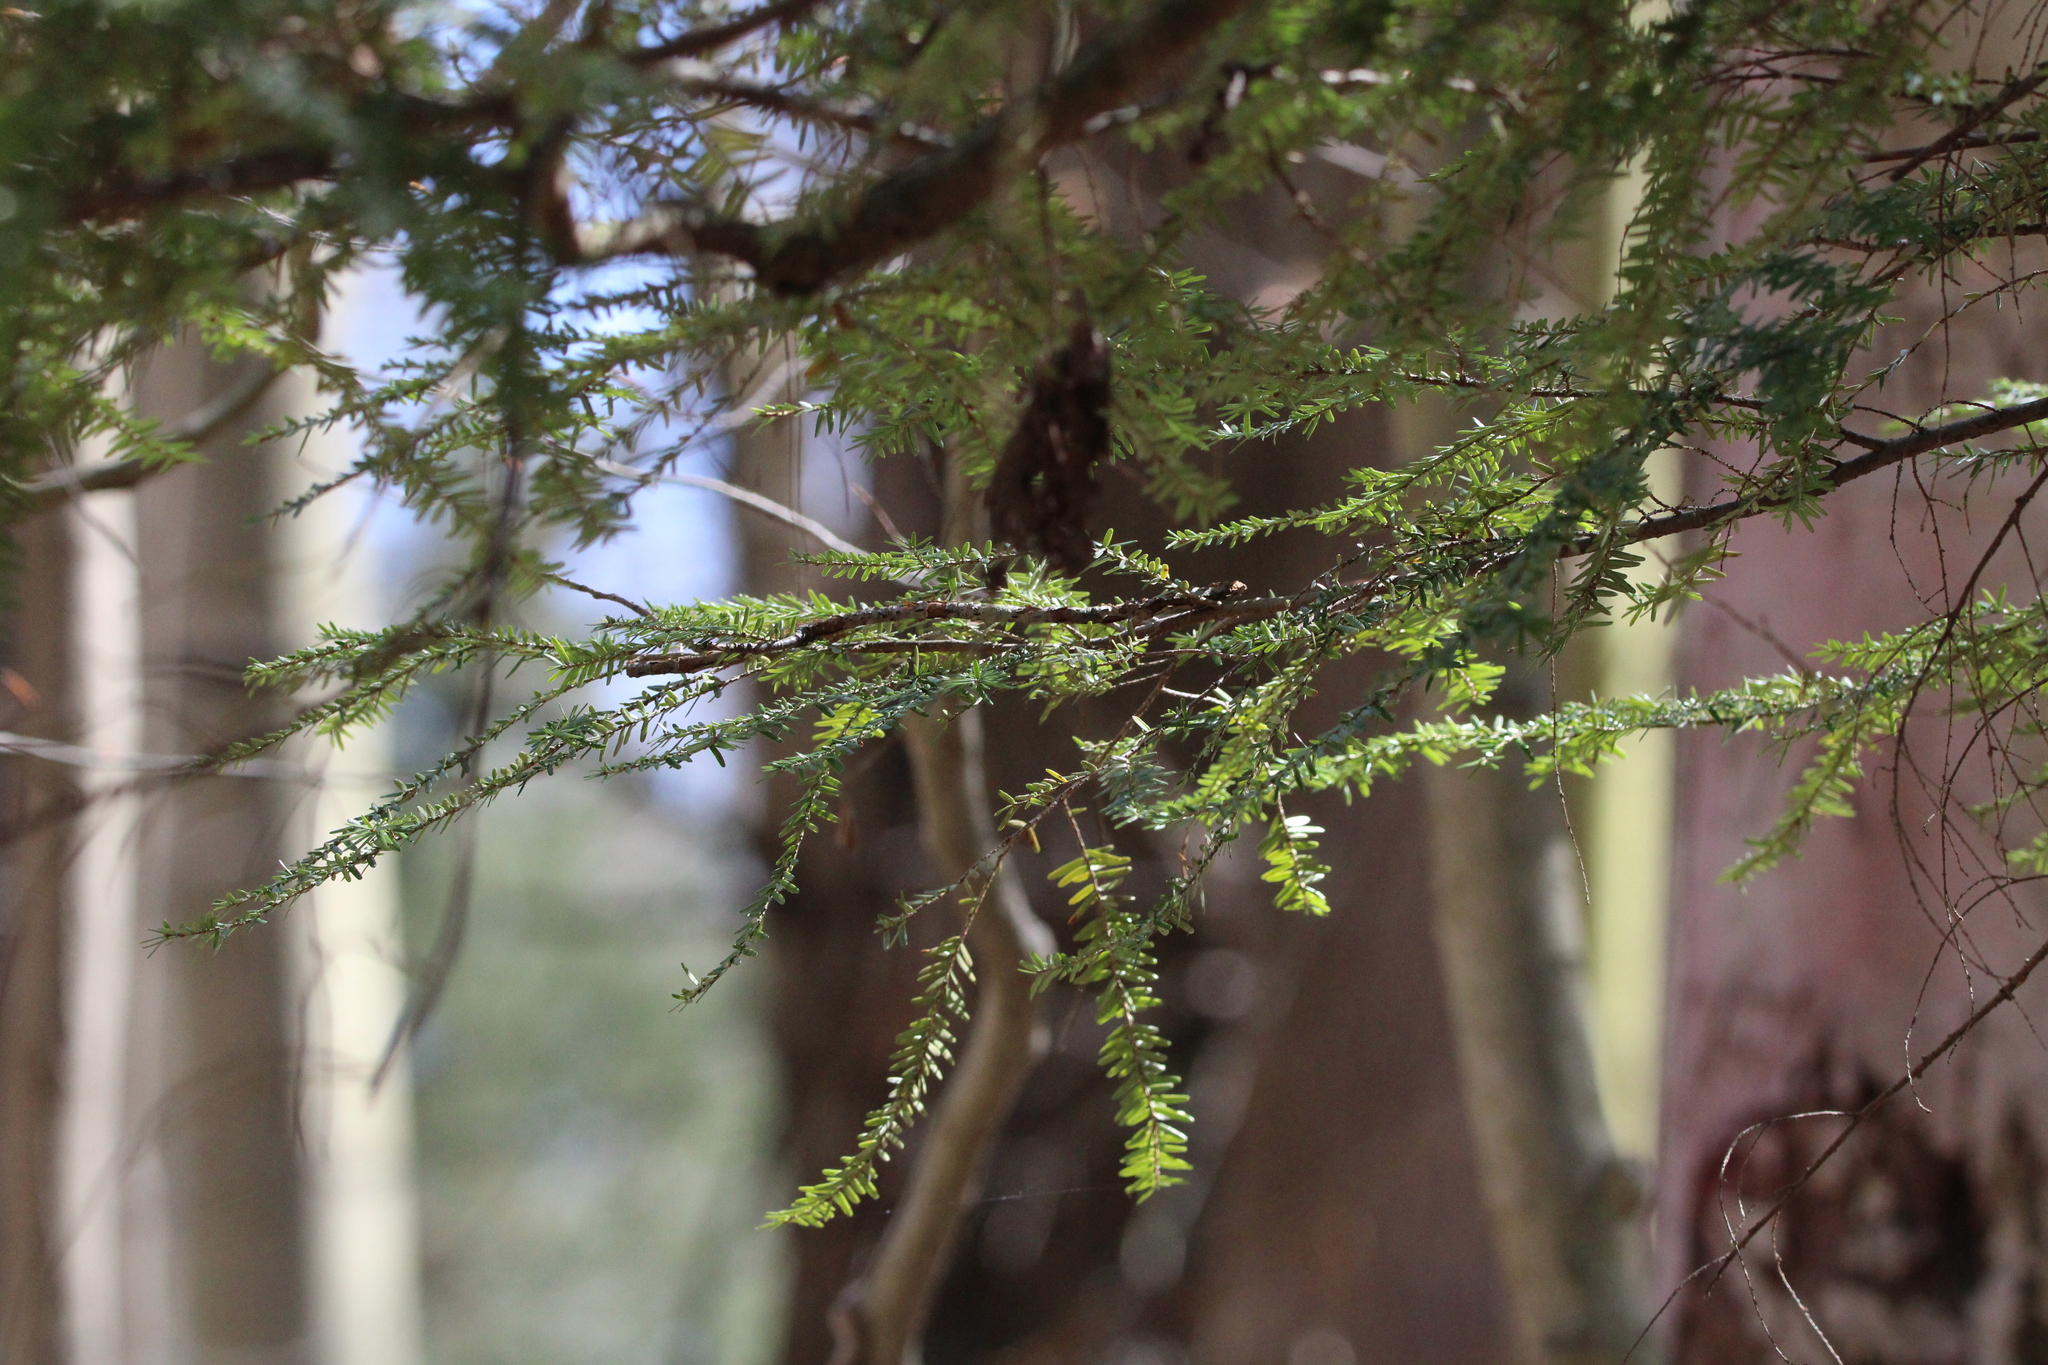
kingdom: Plantae
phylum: Tracheophyta
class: Pinopsida
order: Pinales
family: Pinaceae
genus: Tsuga
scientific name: Tsuga canadensis
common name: Eastern hemlock
